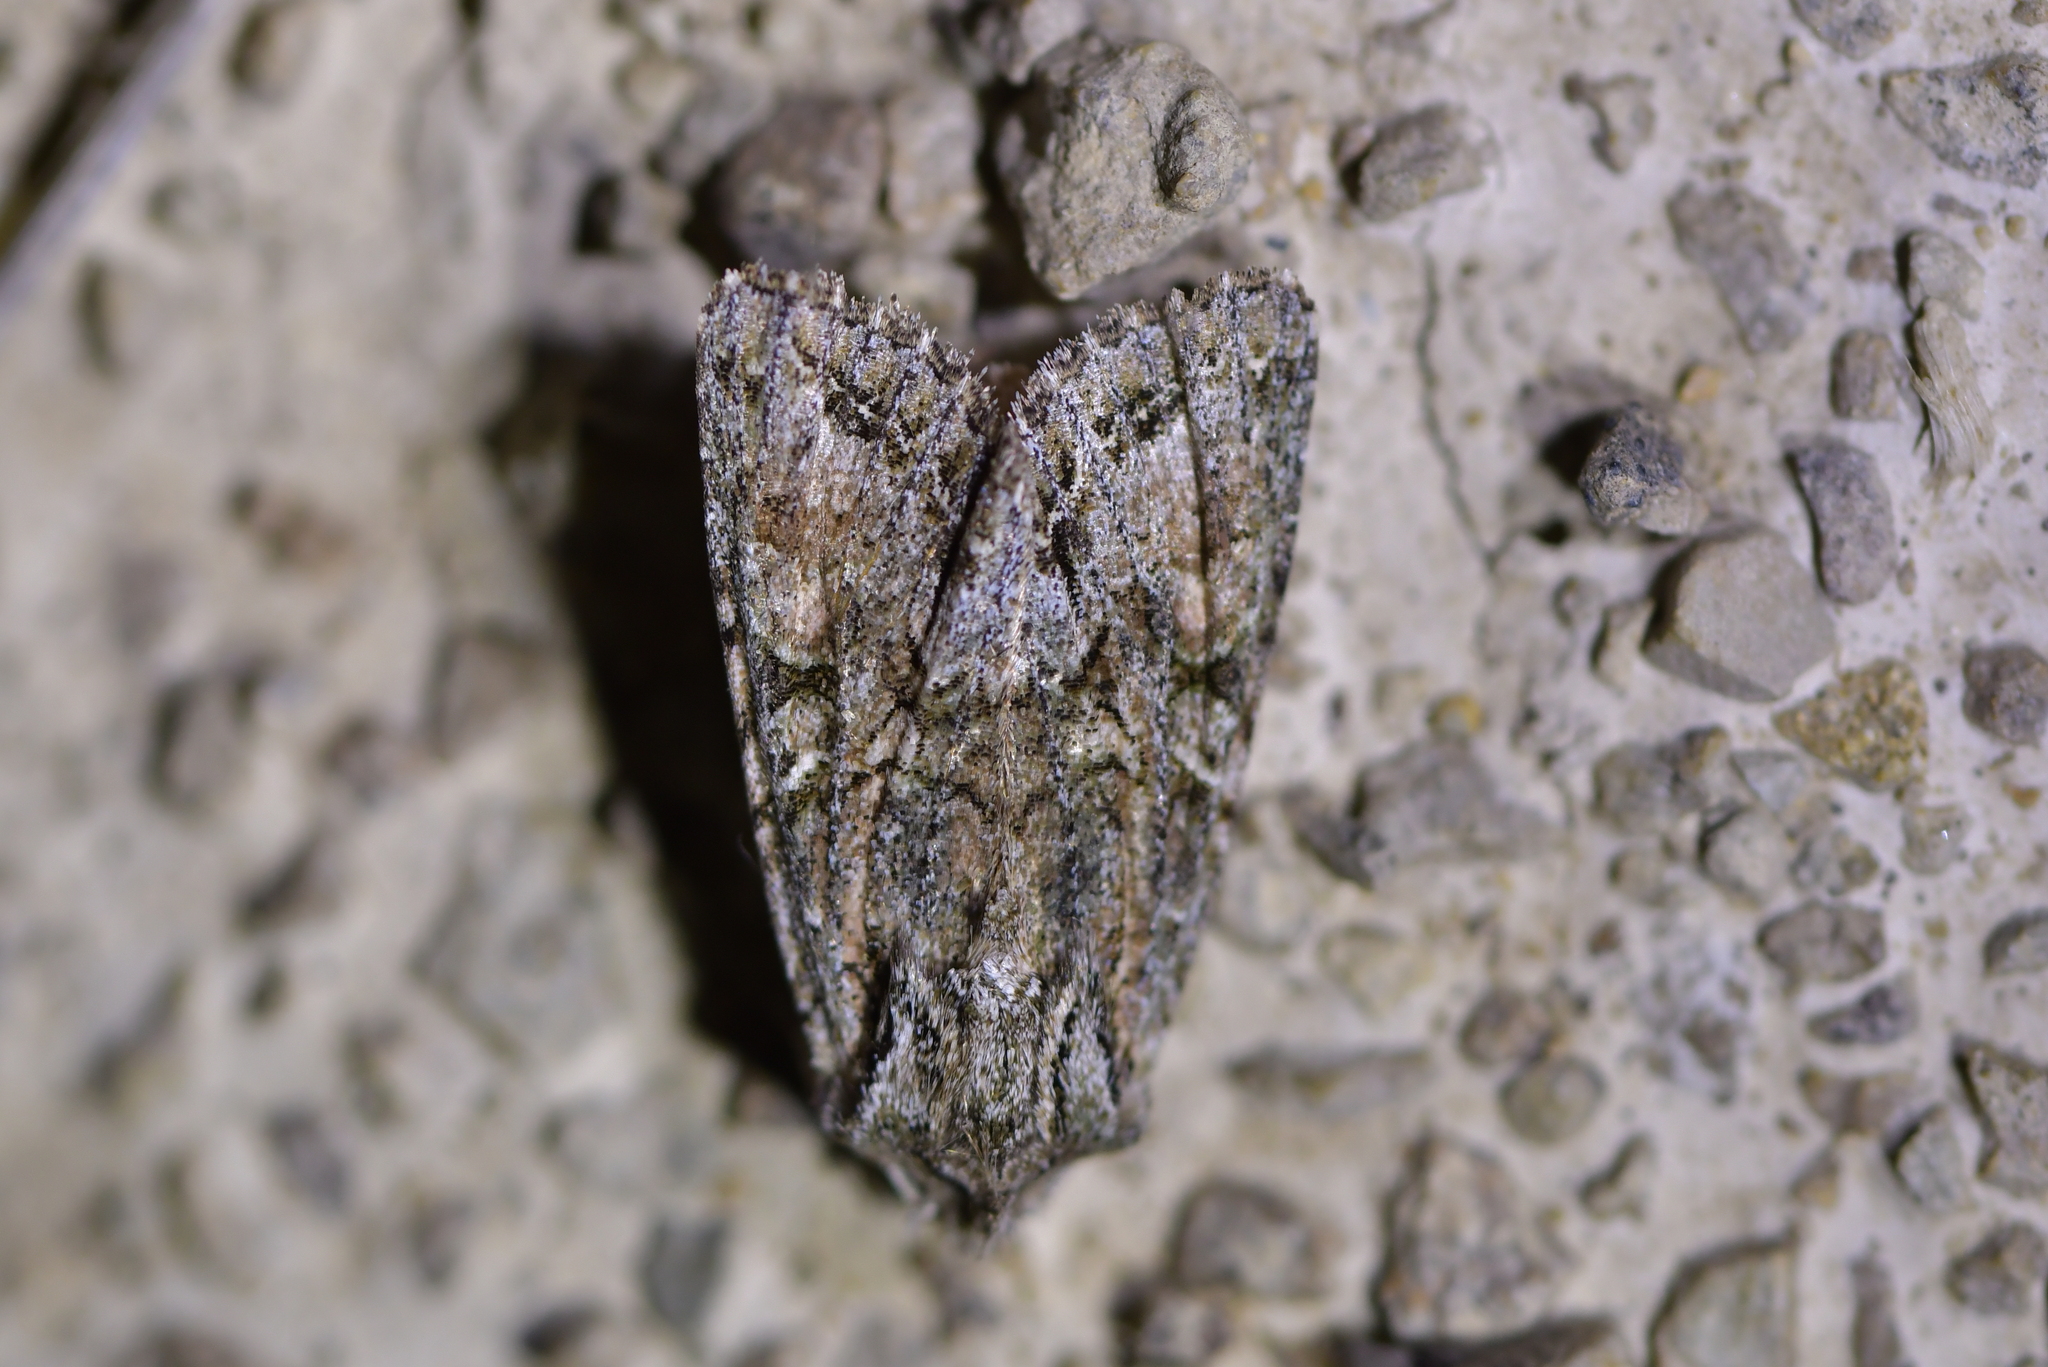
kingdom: Animalia
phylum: Arthropoda
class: Insecta
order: Lepidoptera
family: Noctuidae
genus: Ichneutica
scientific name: Ichneutica mutans
